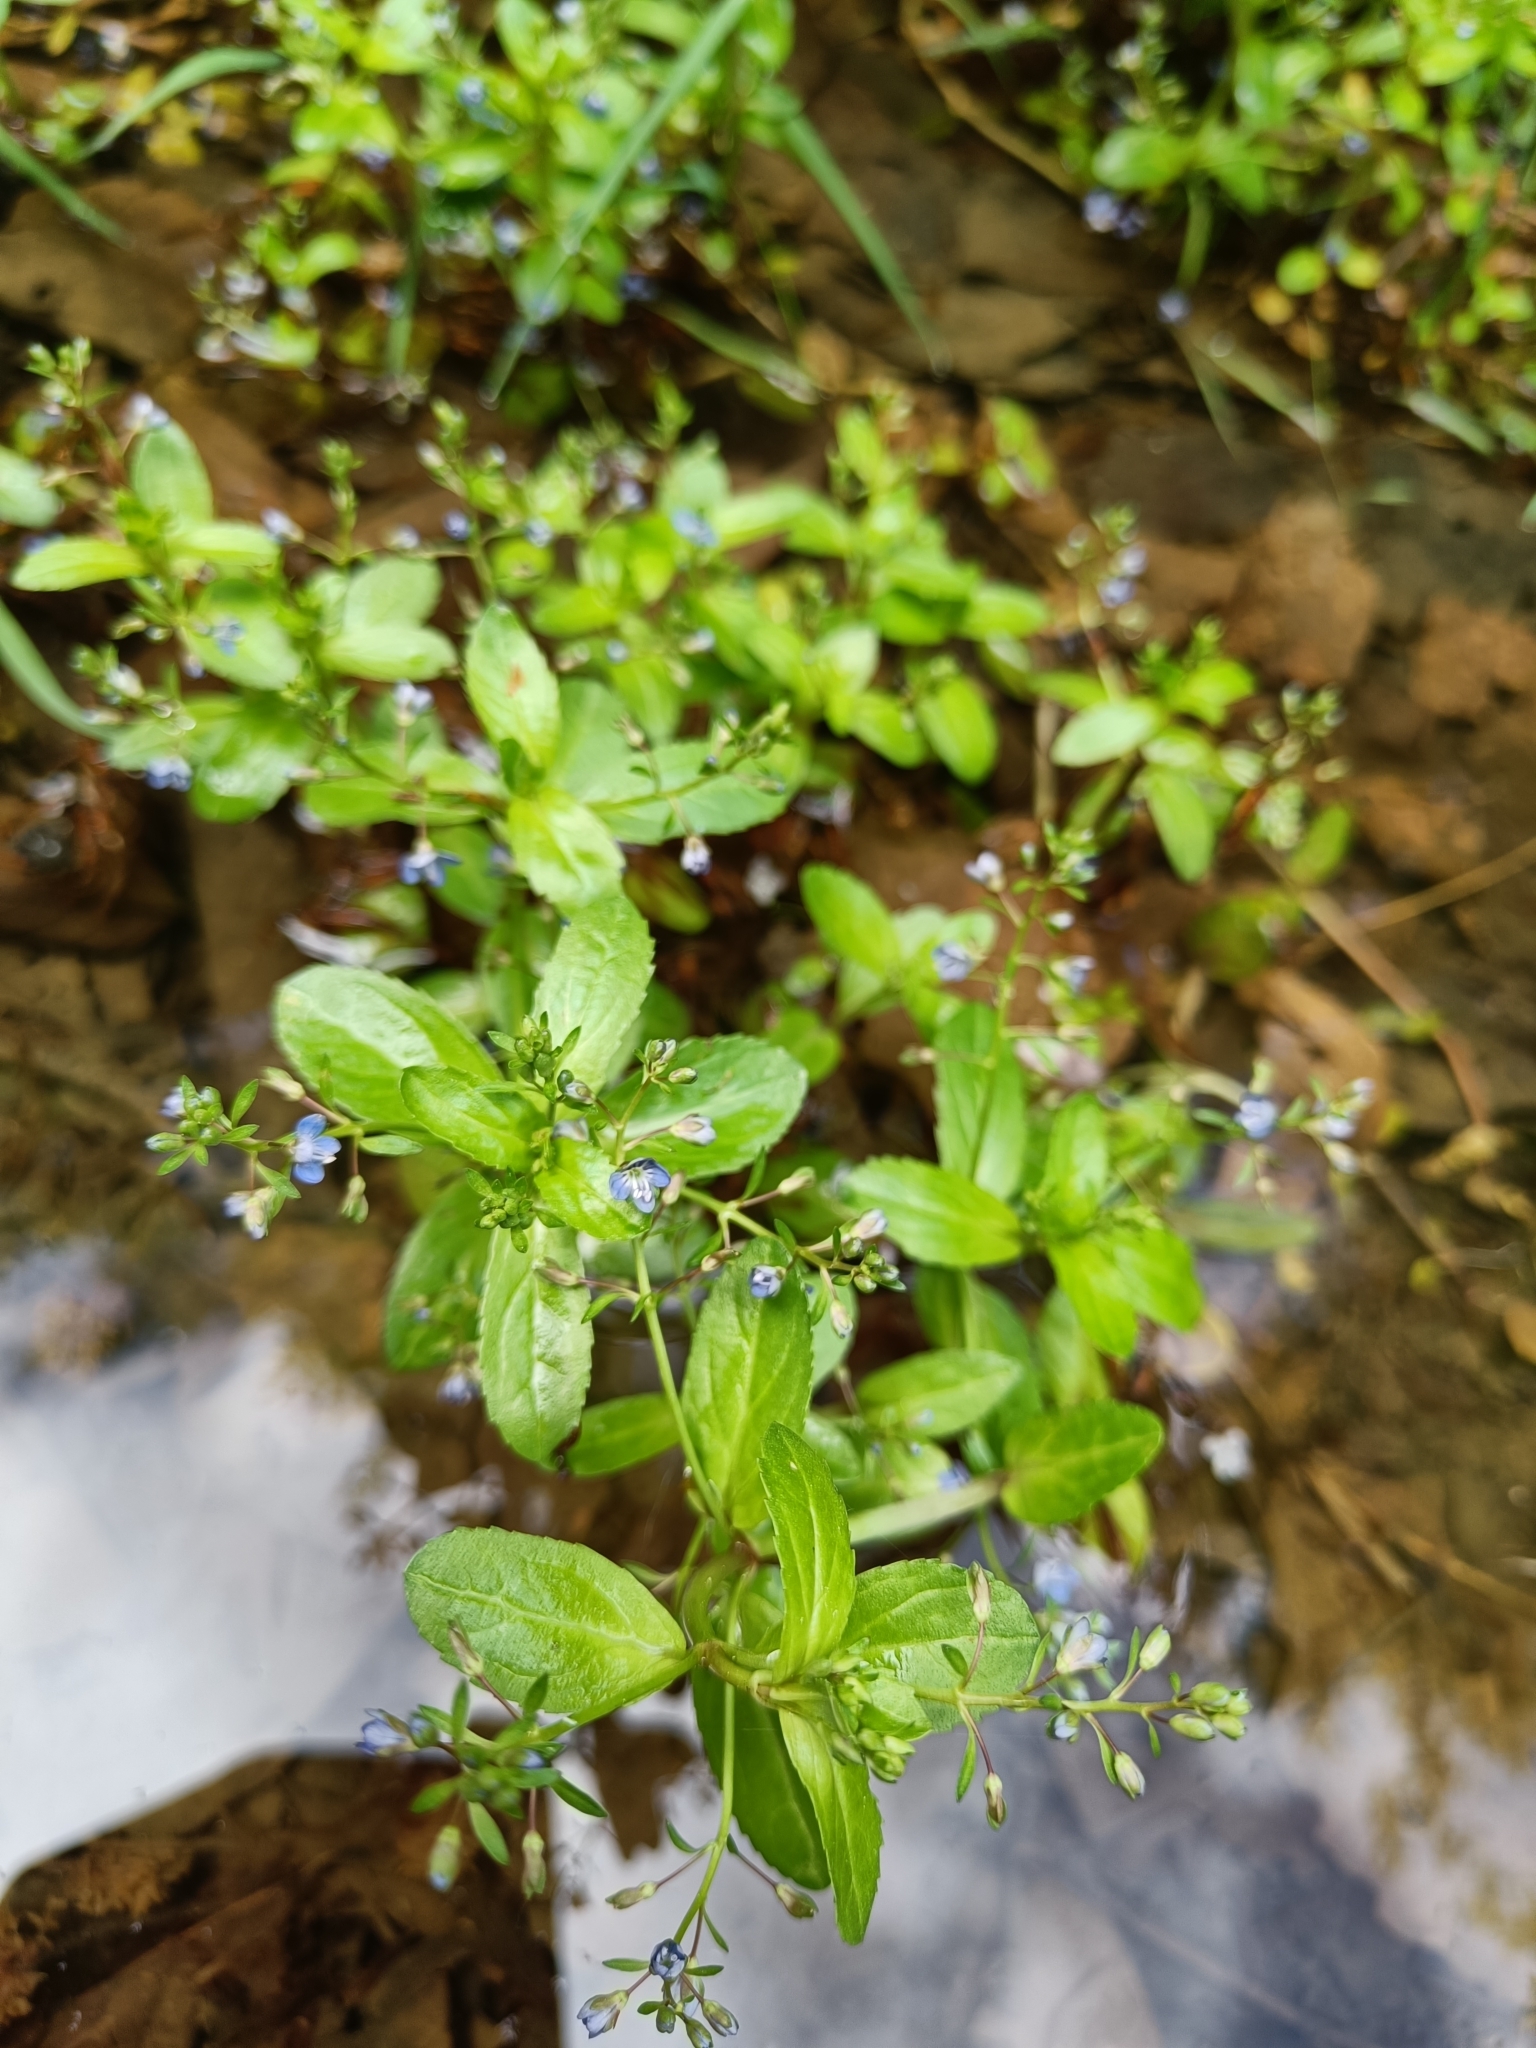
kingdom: Plantae
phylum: Tracheophyta
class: Magnoliopsida
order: Lamiales
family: Plantaginaceae
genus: Veronica
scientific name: Veronica beccabunga
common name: Brooklime
